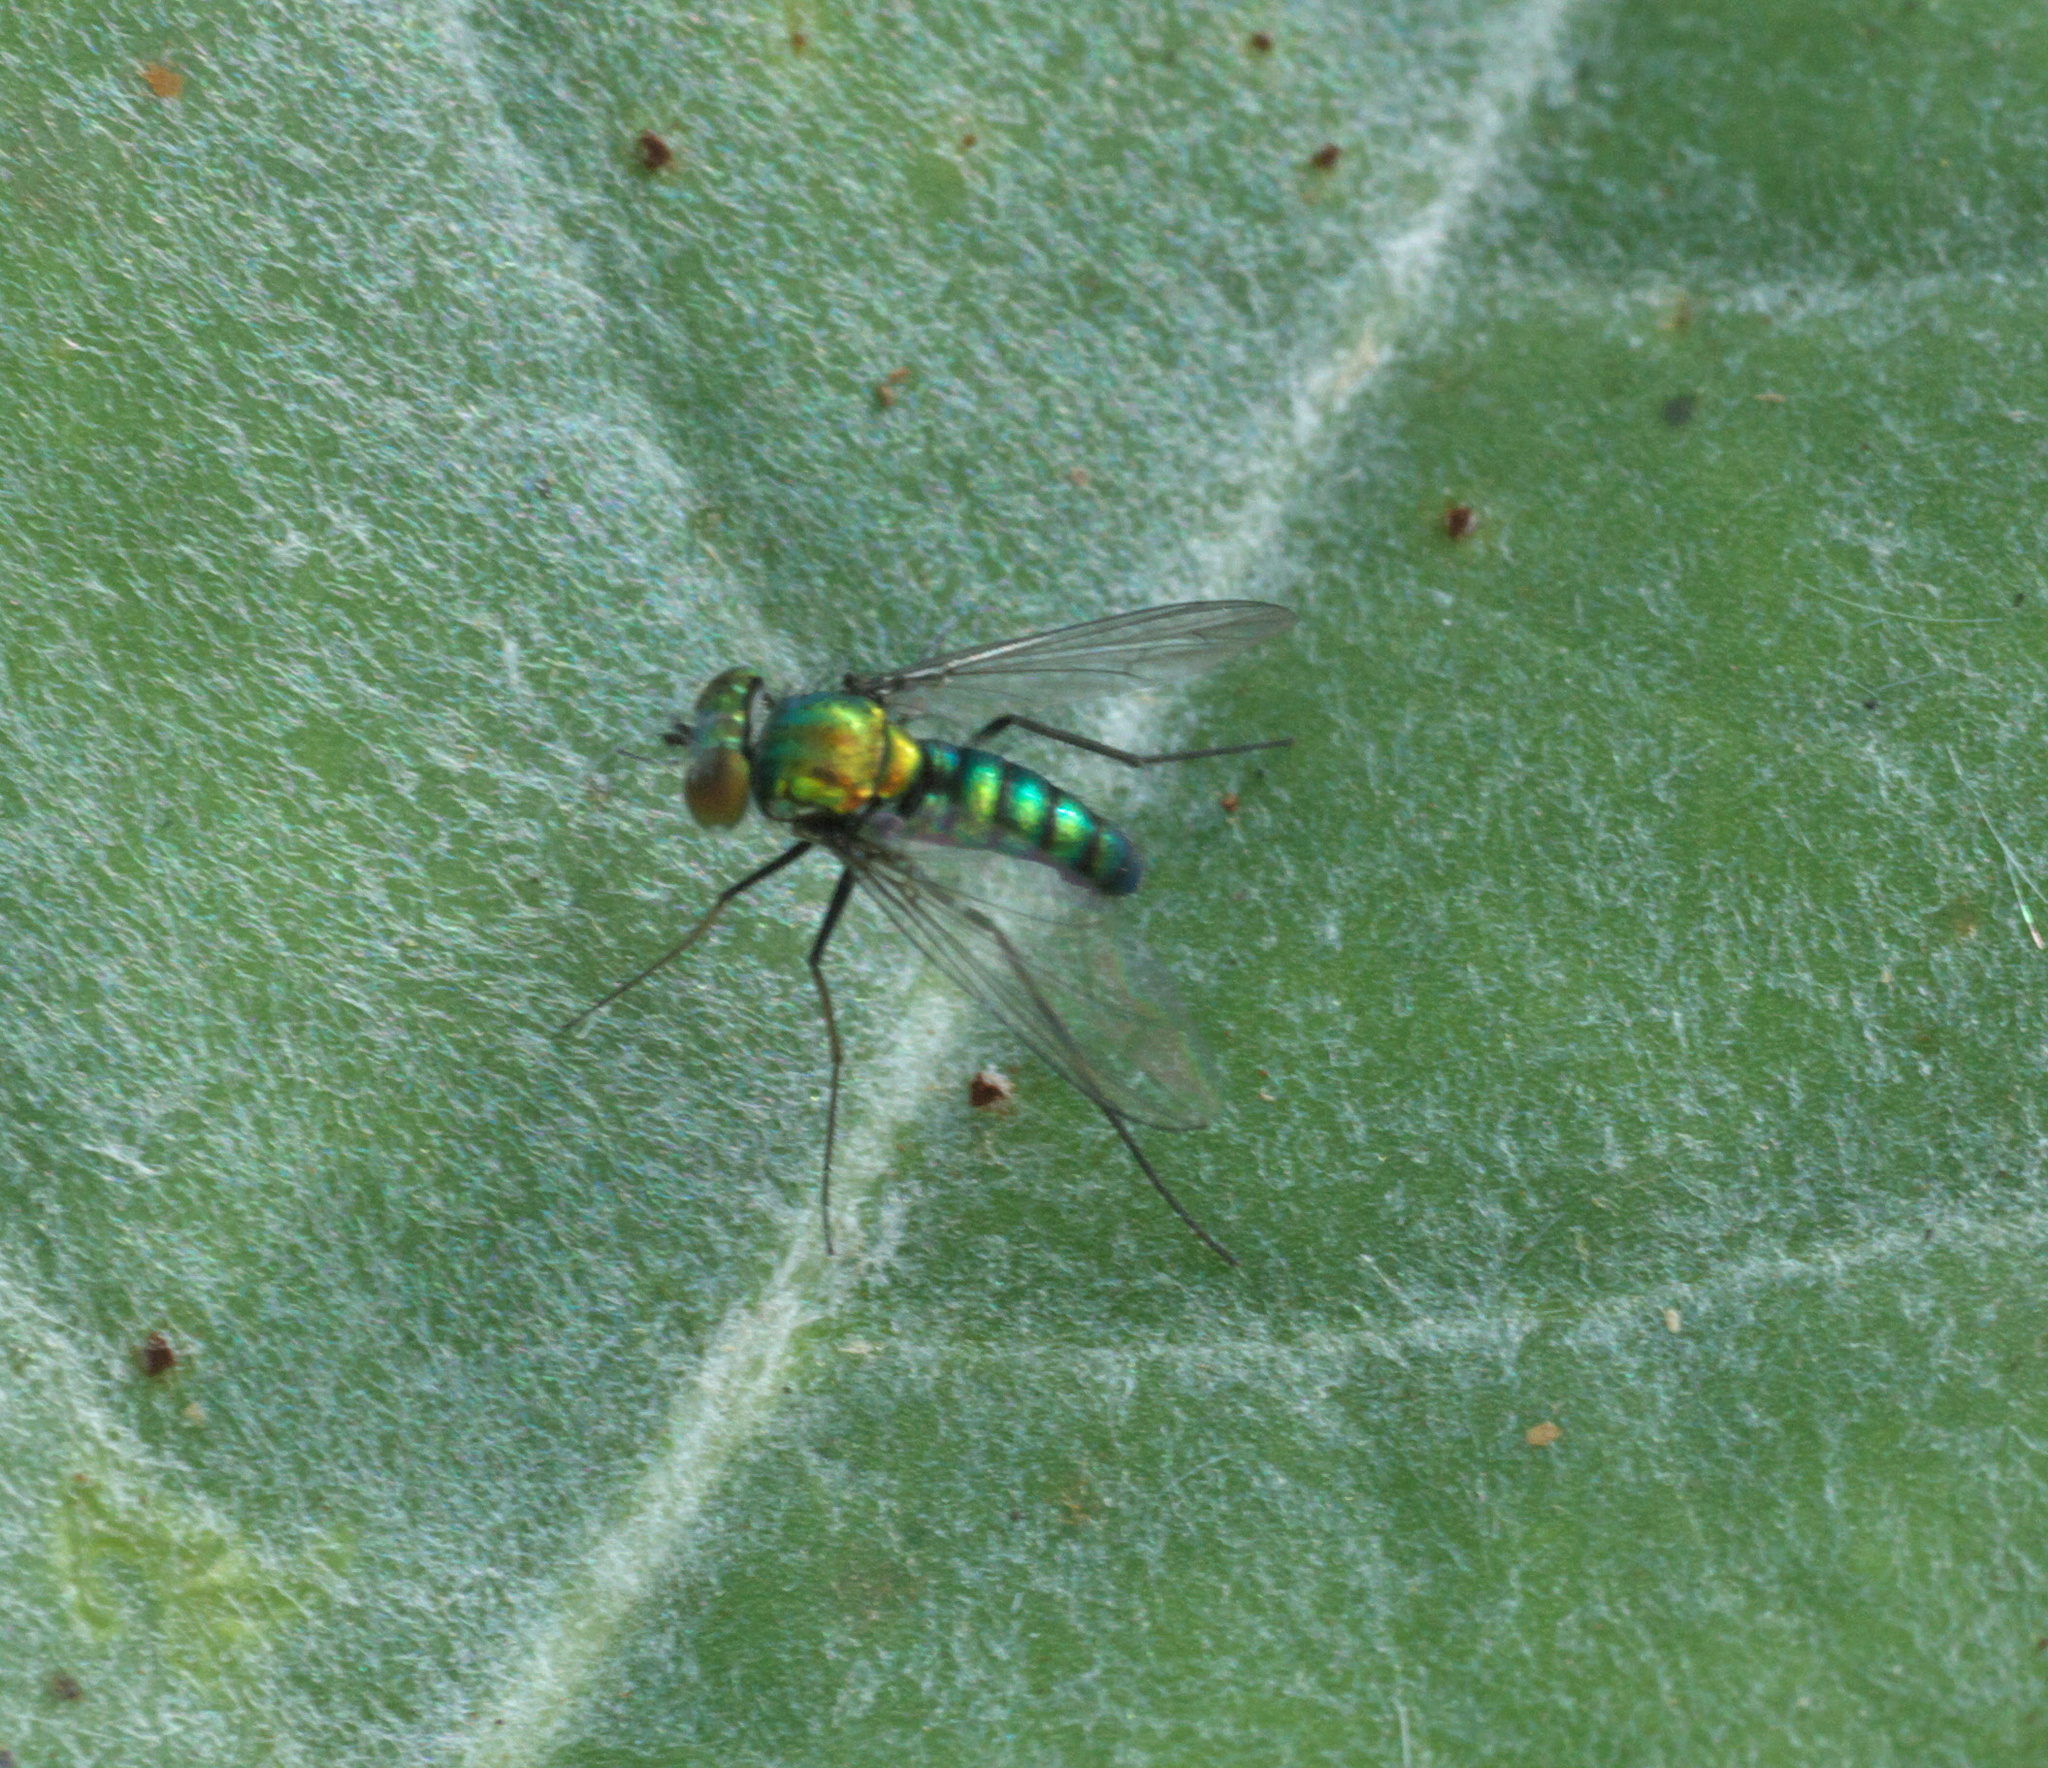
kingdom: Animalia
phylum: Arthropoda
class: Insecta
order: Diptera
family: Dolichopodidae
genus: Condylostylus
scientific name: Condylostylus purpureus
